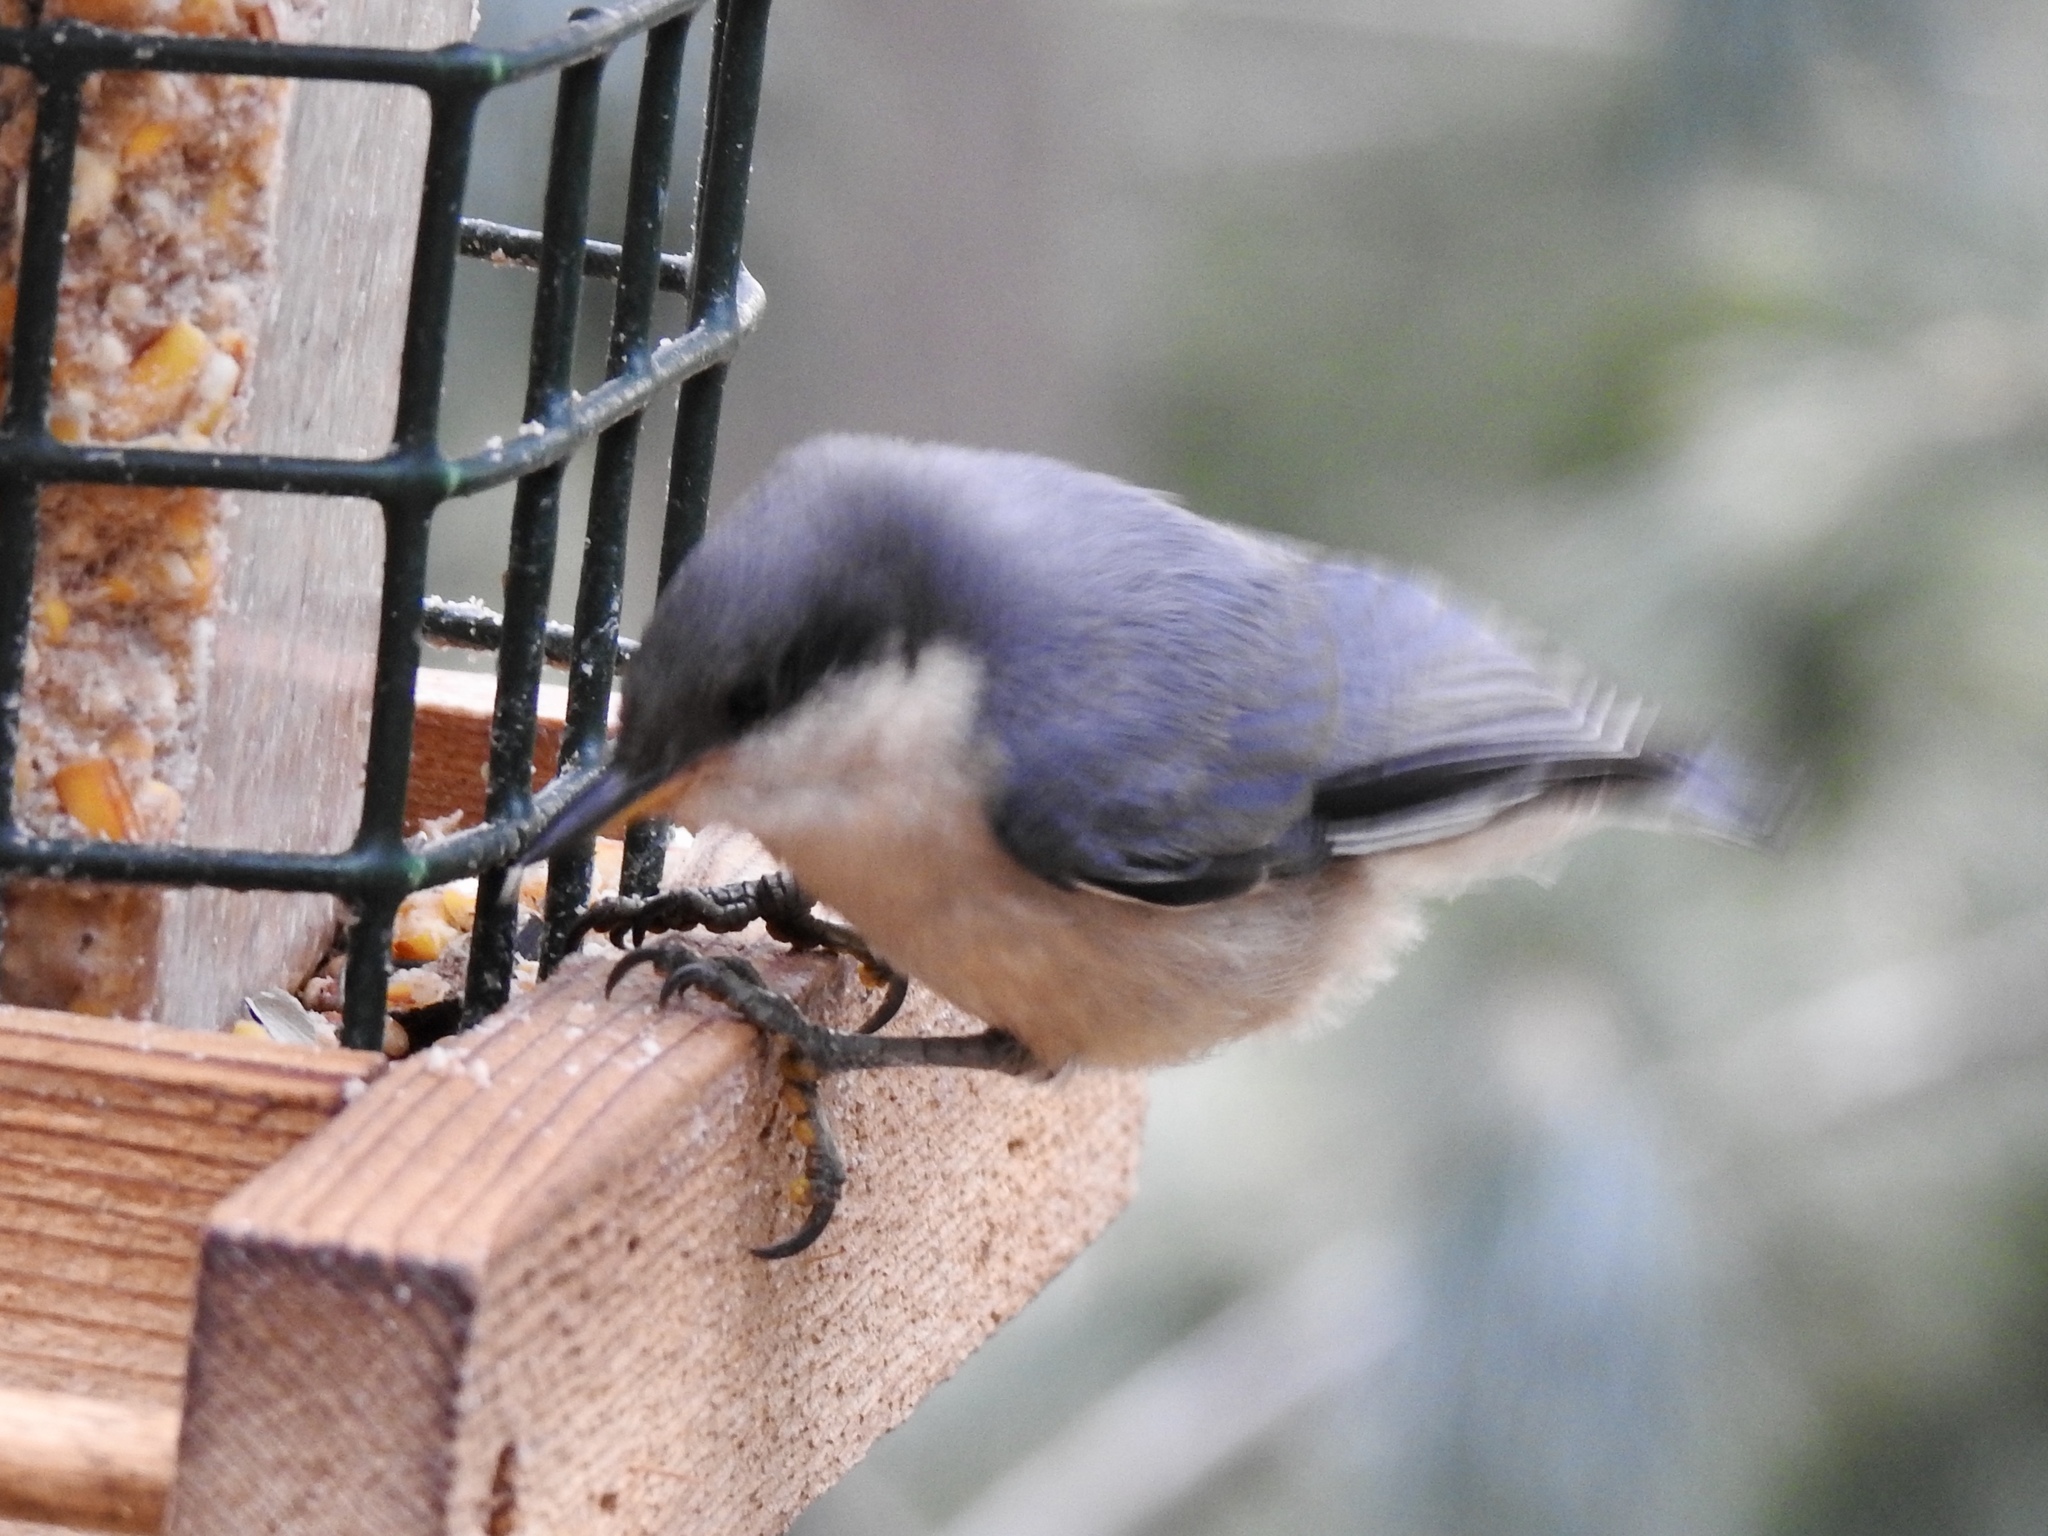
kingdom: Animalia
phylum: Chordata
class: Aves
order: Passeriformes
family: Sittidae
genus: Sitta
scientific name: Sitta pygmaea
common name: Pygmy nuthatch
